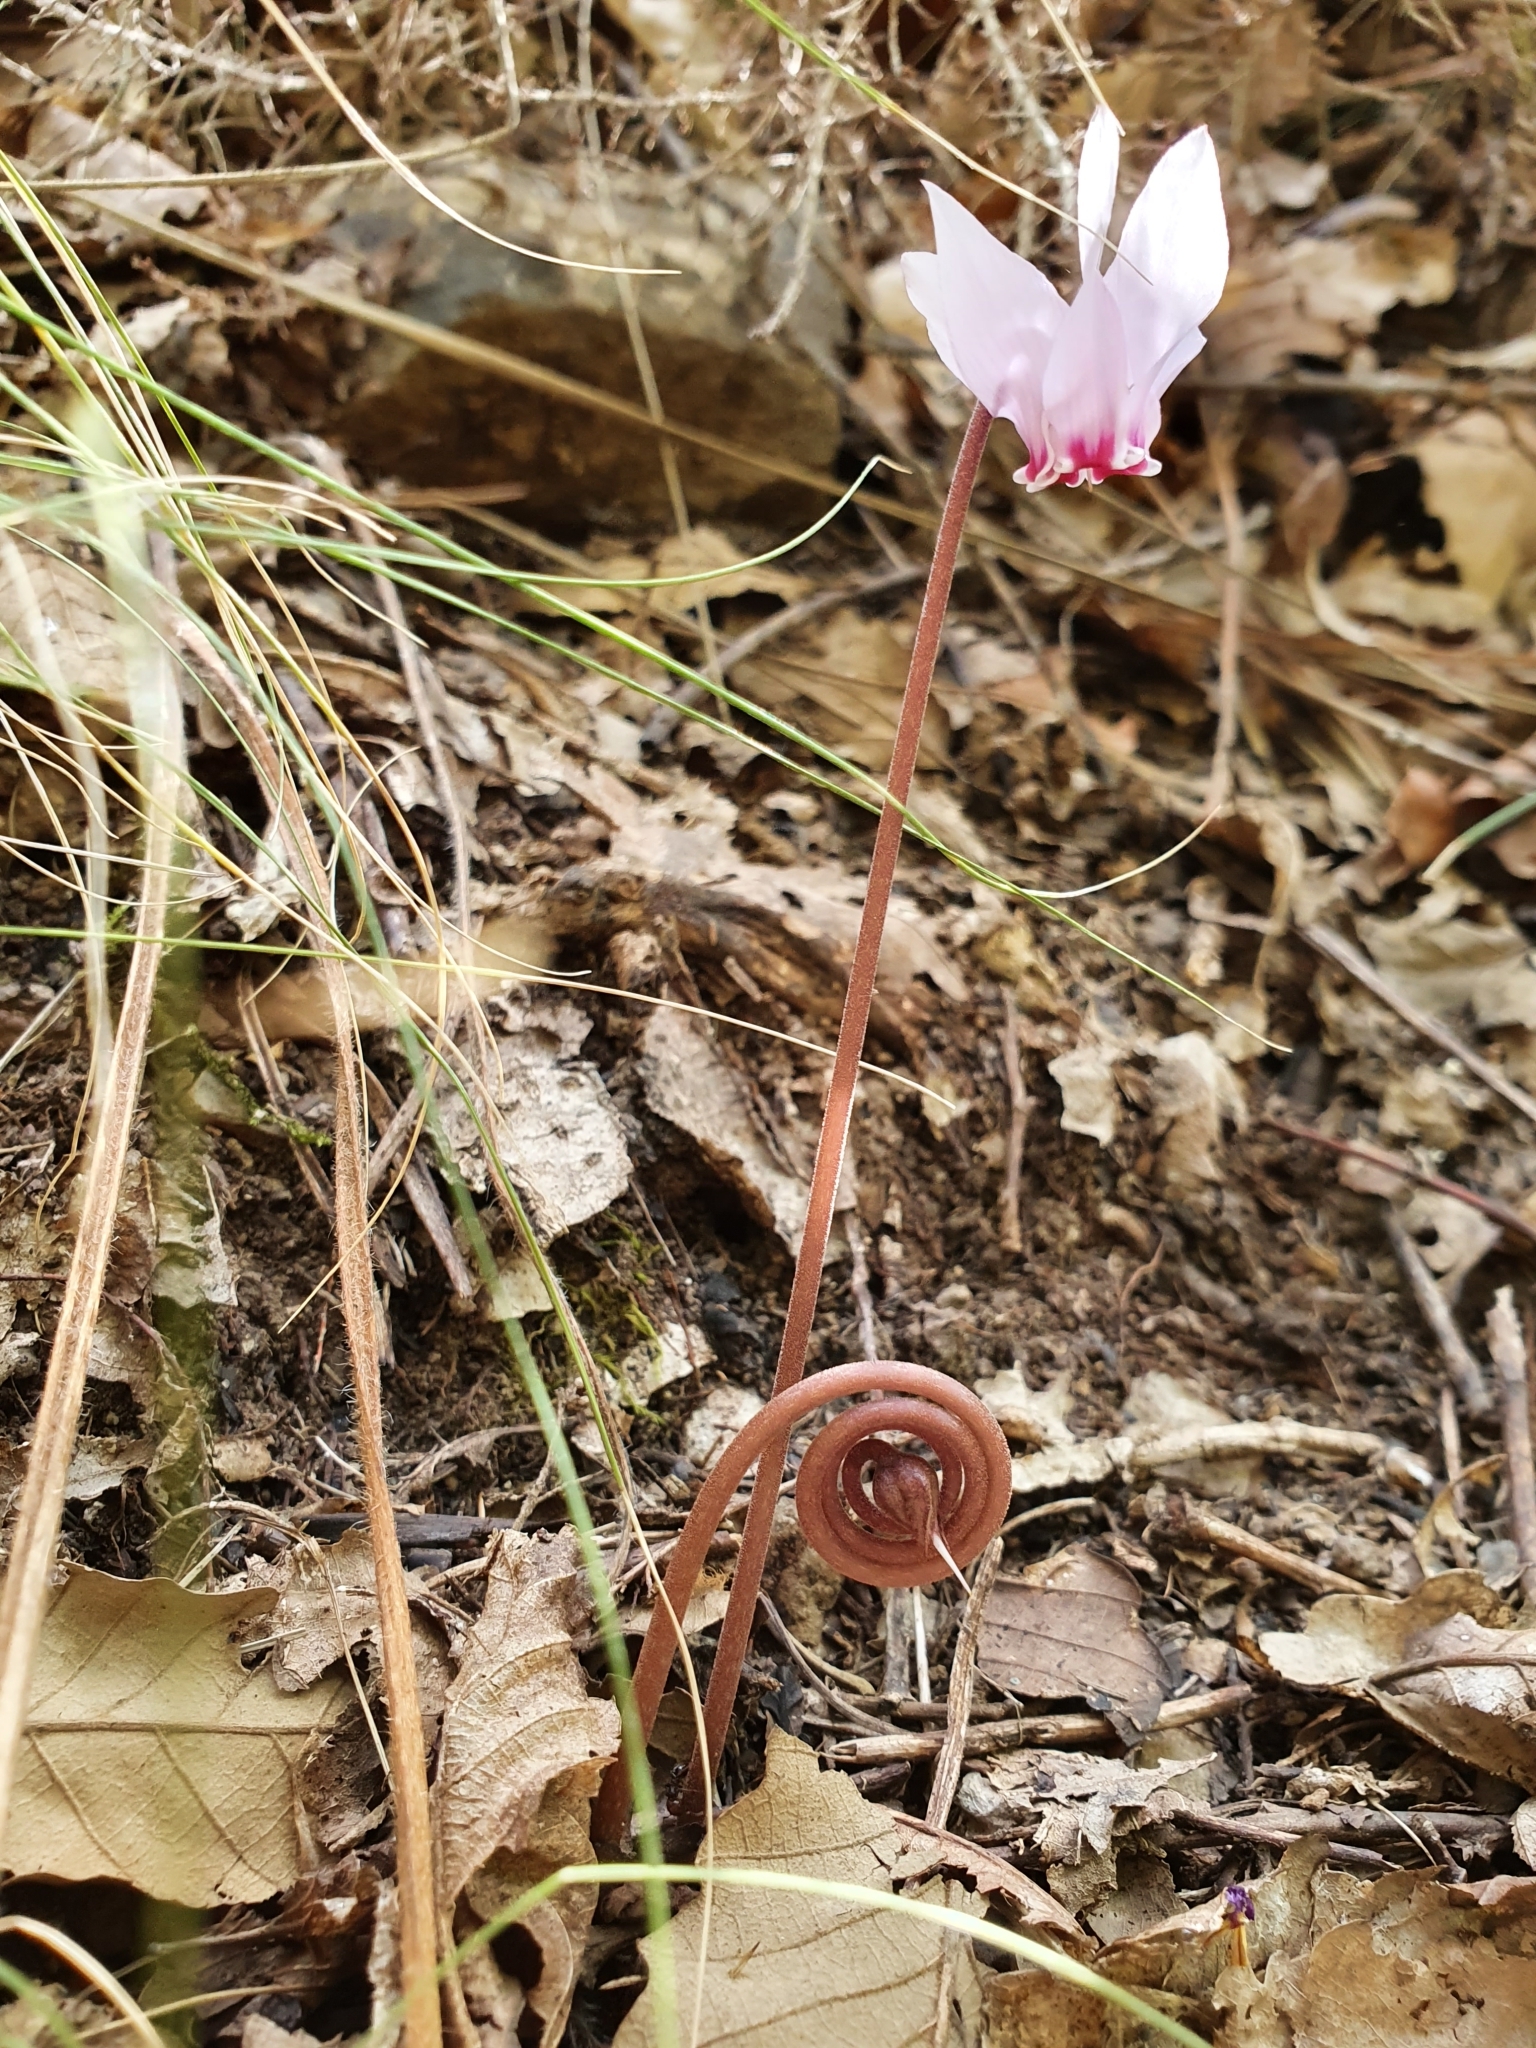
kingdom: Plantae
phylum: Tracheophyta
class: Magnoliopsida
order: Ericales
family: Primulaceae
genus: Cyclamen
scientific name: Cyclamen africanum
